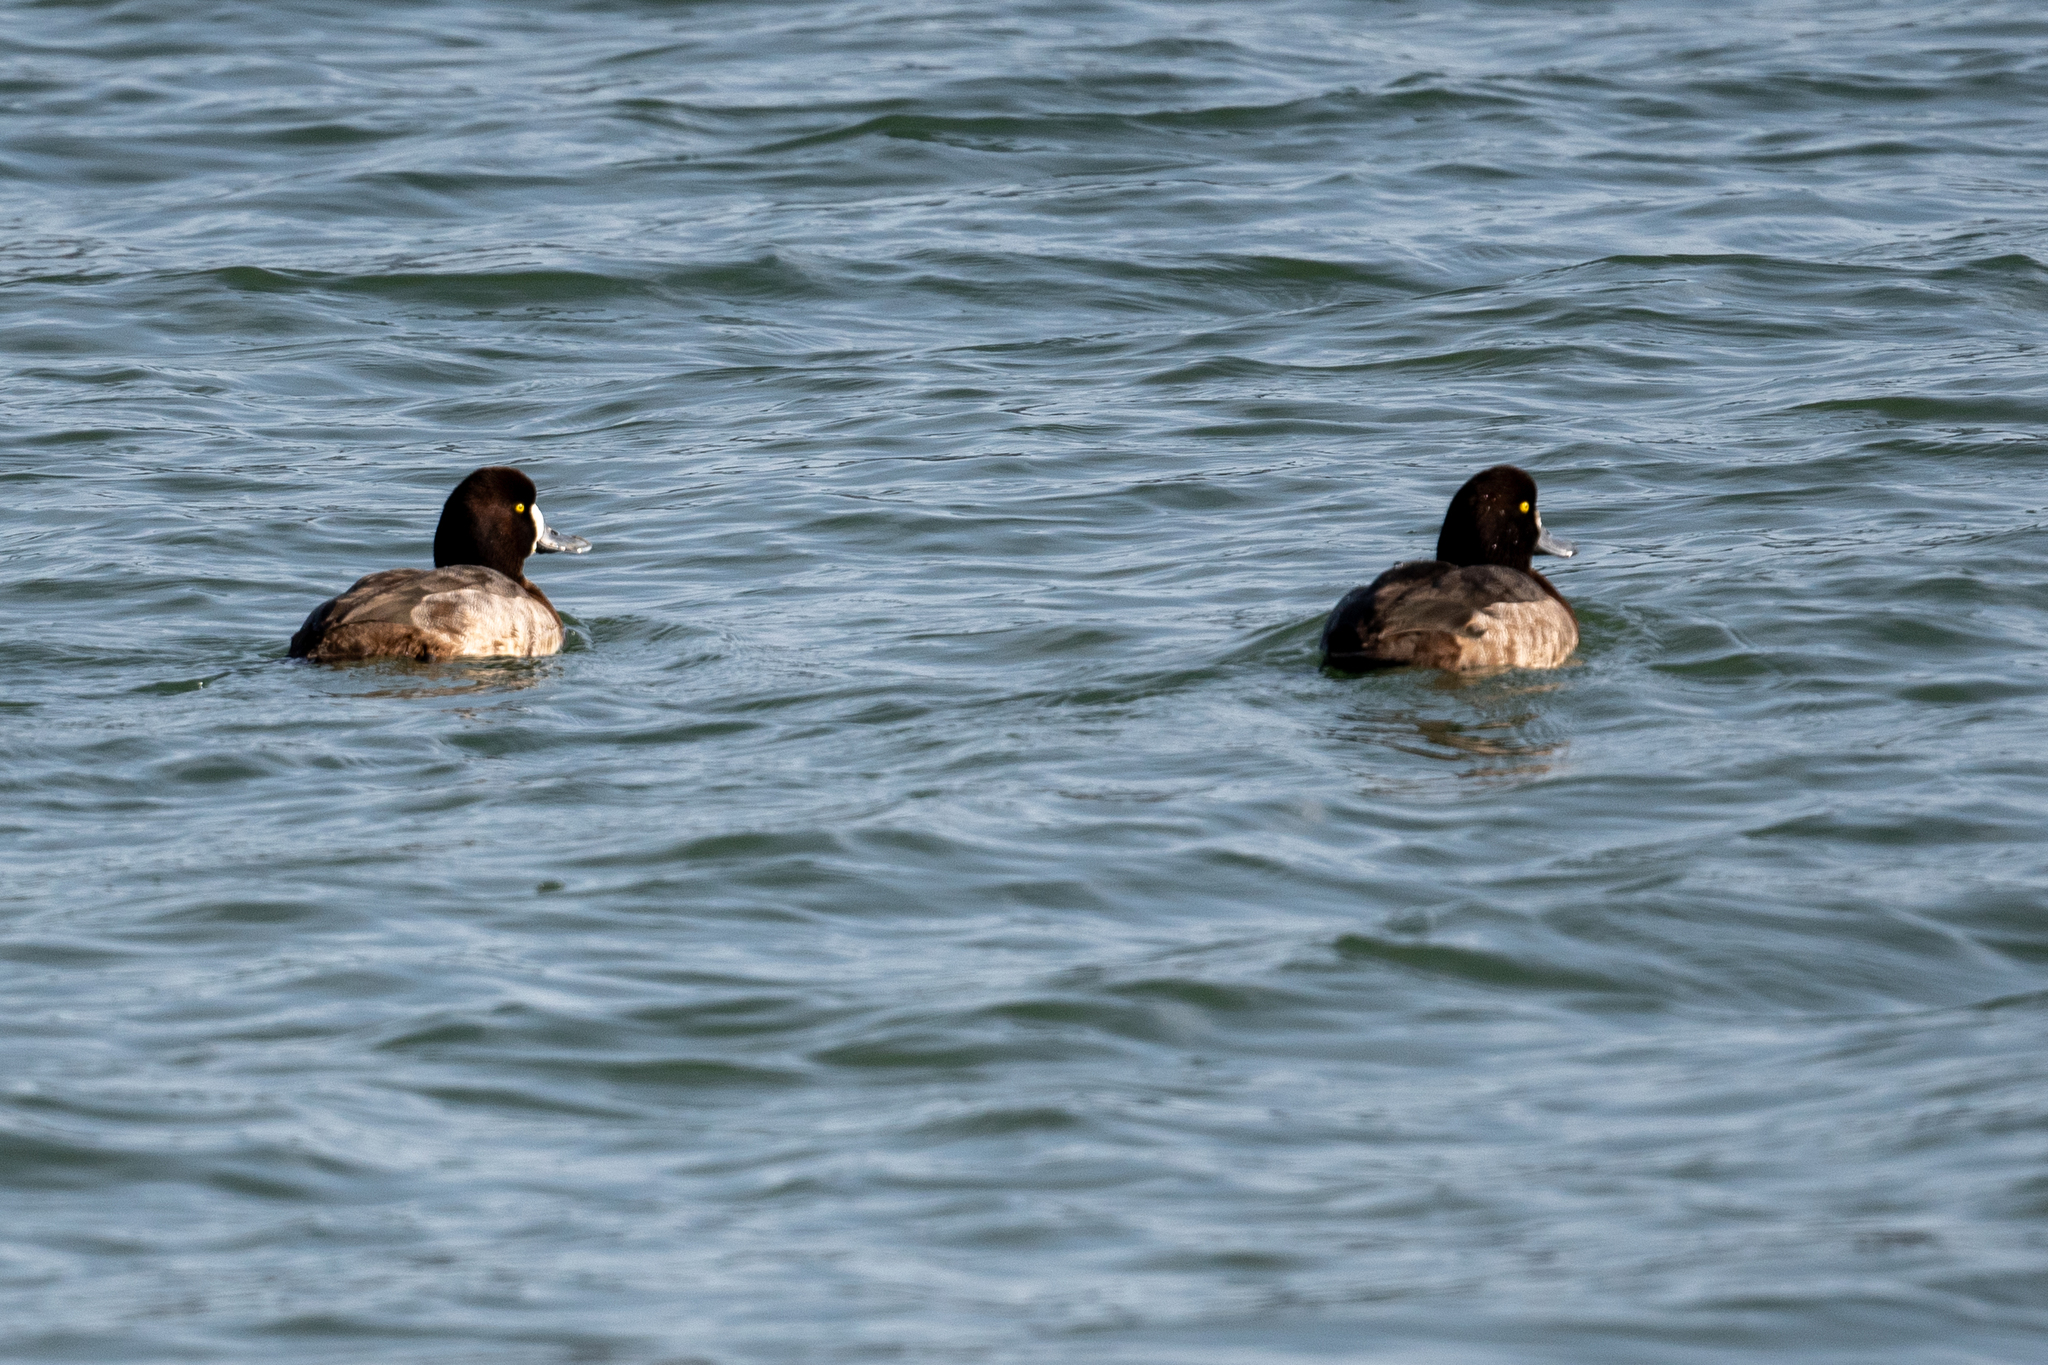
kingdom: Animalia
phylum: Chordata
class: Aves
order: Anseriformes
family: Anatidae
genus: Aythya
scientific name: Aythya marila
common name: Greater scaup
